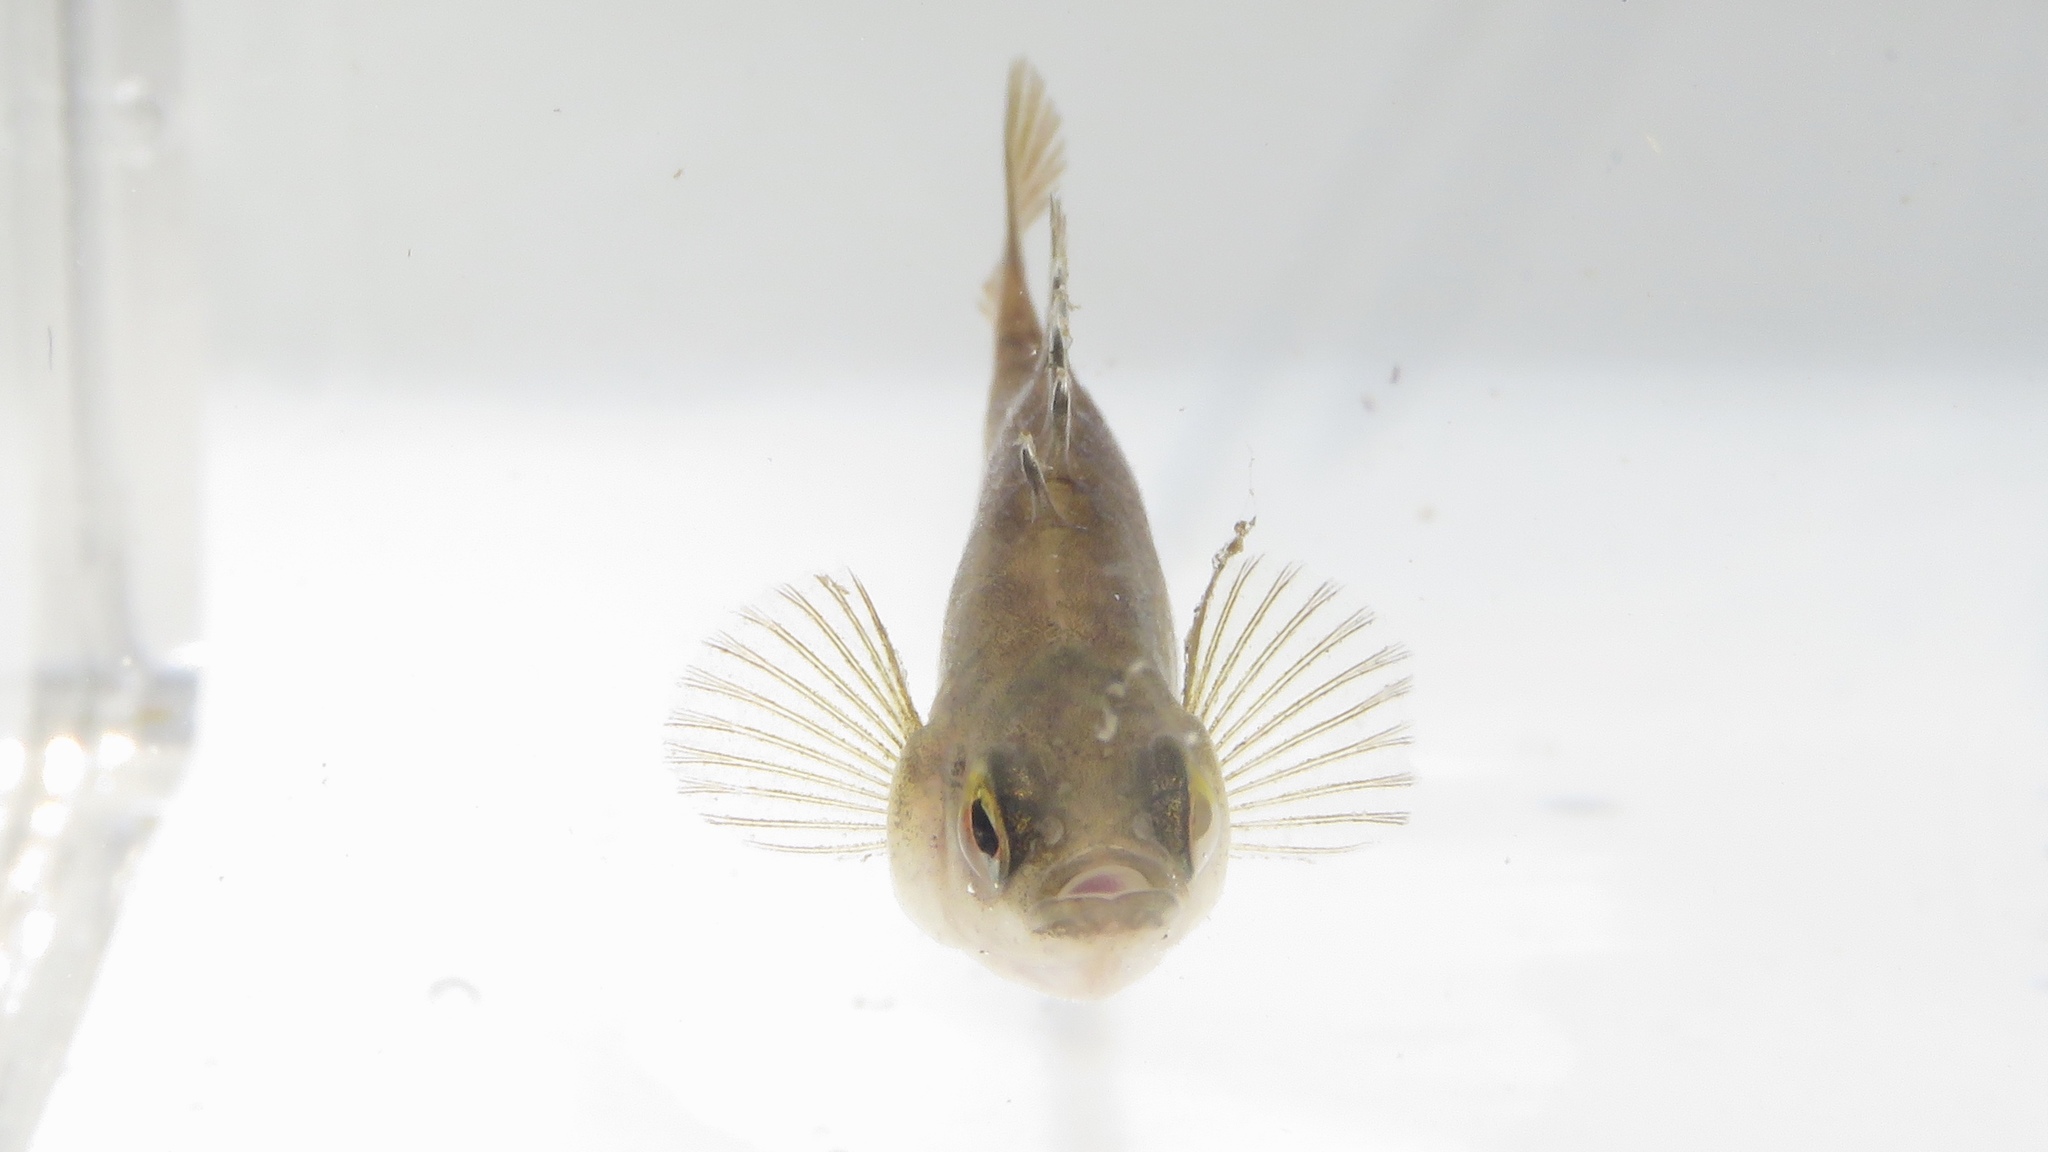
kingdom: Animalia
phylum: Chordata
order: Gasterosteiformes
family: Gasterosteidae
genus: Culaea
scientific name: Culaea inconstans
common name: Brook stickleback
